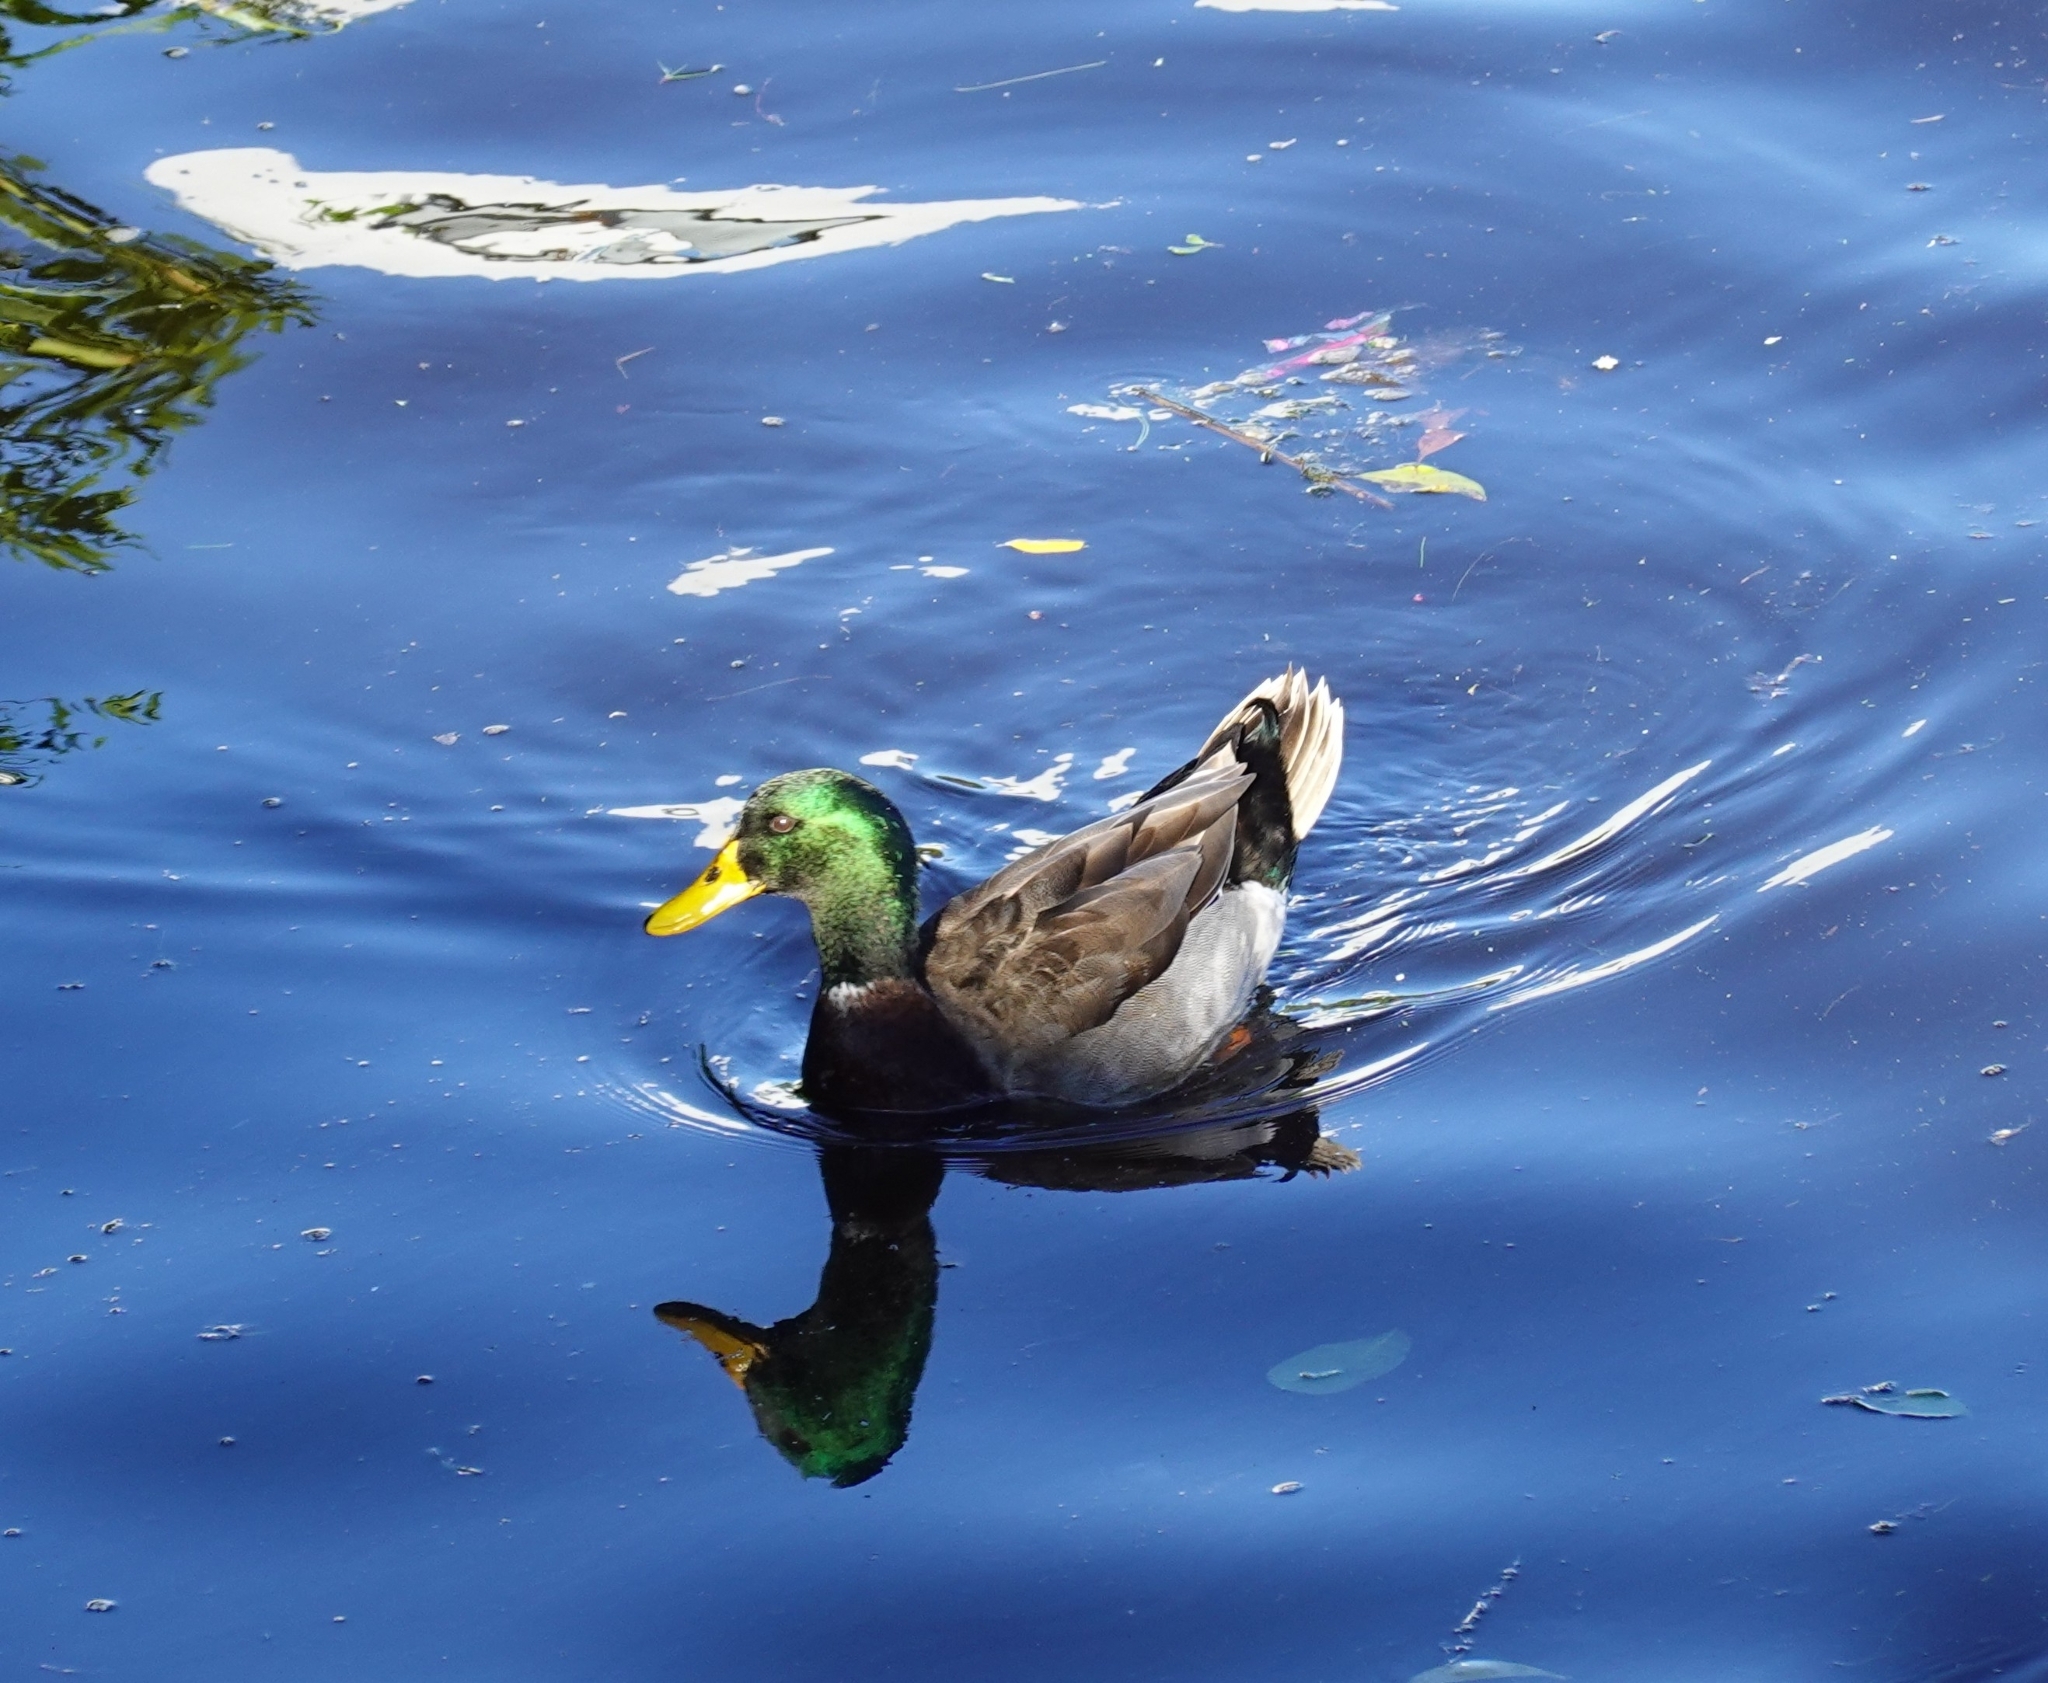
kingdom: Animalia
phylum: Chordata
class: Aves
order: Anseriformes
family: Anatidae
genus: Anas
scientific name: Anas platyrhynchos
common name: Mallard
